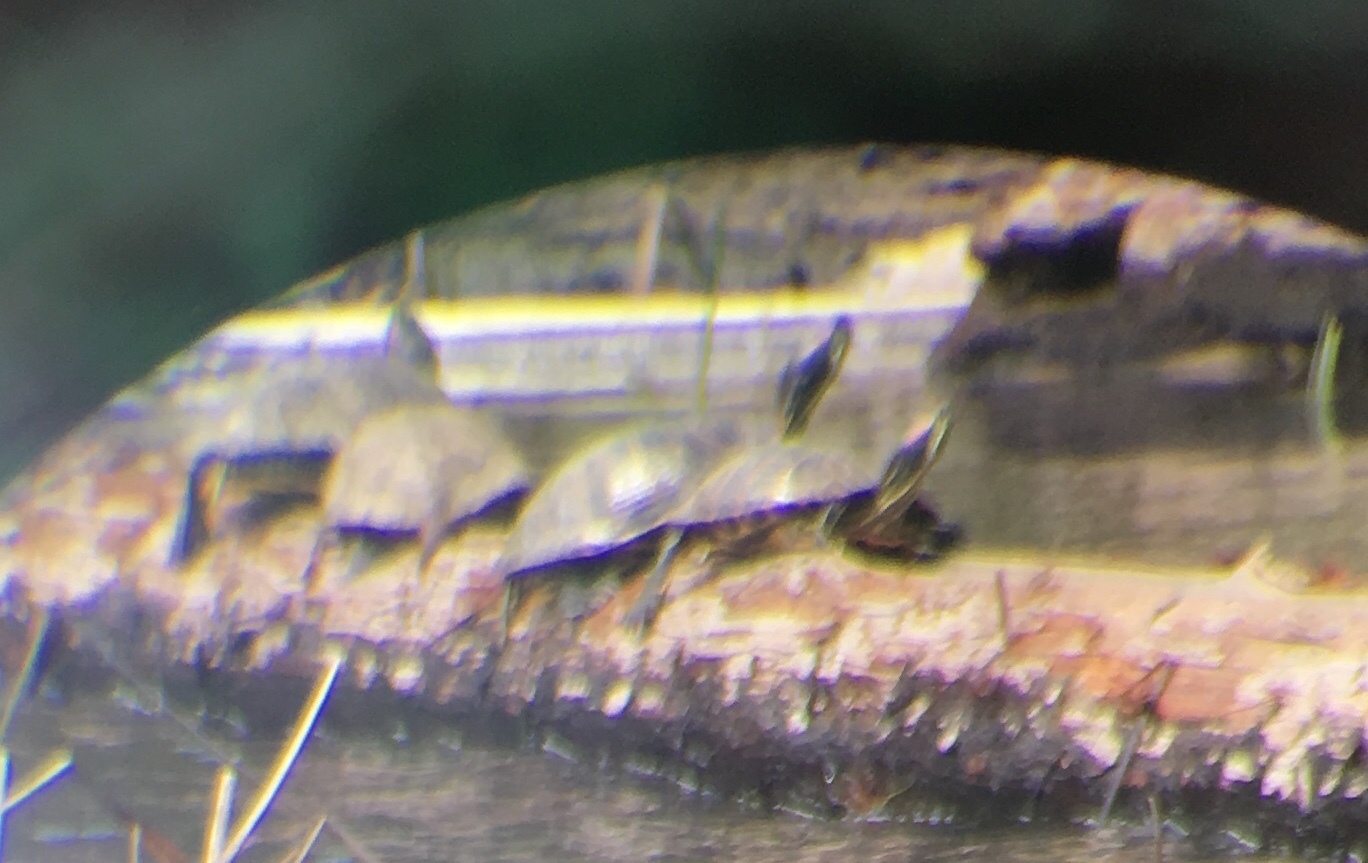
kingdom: Animalia
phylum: Chordata
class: Testudines
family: Emydidae
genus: Trachemys
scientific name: Trachemys scripta
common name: Slider
